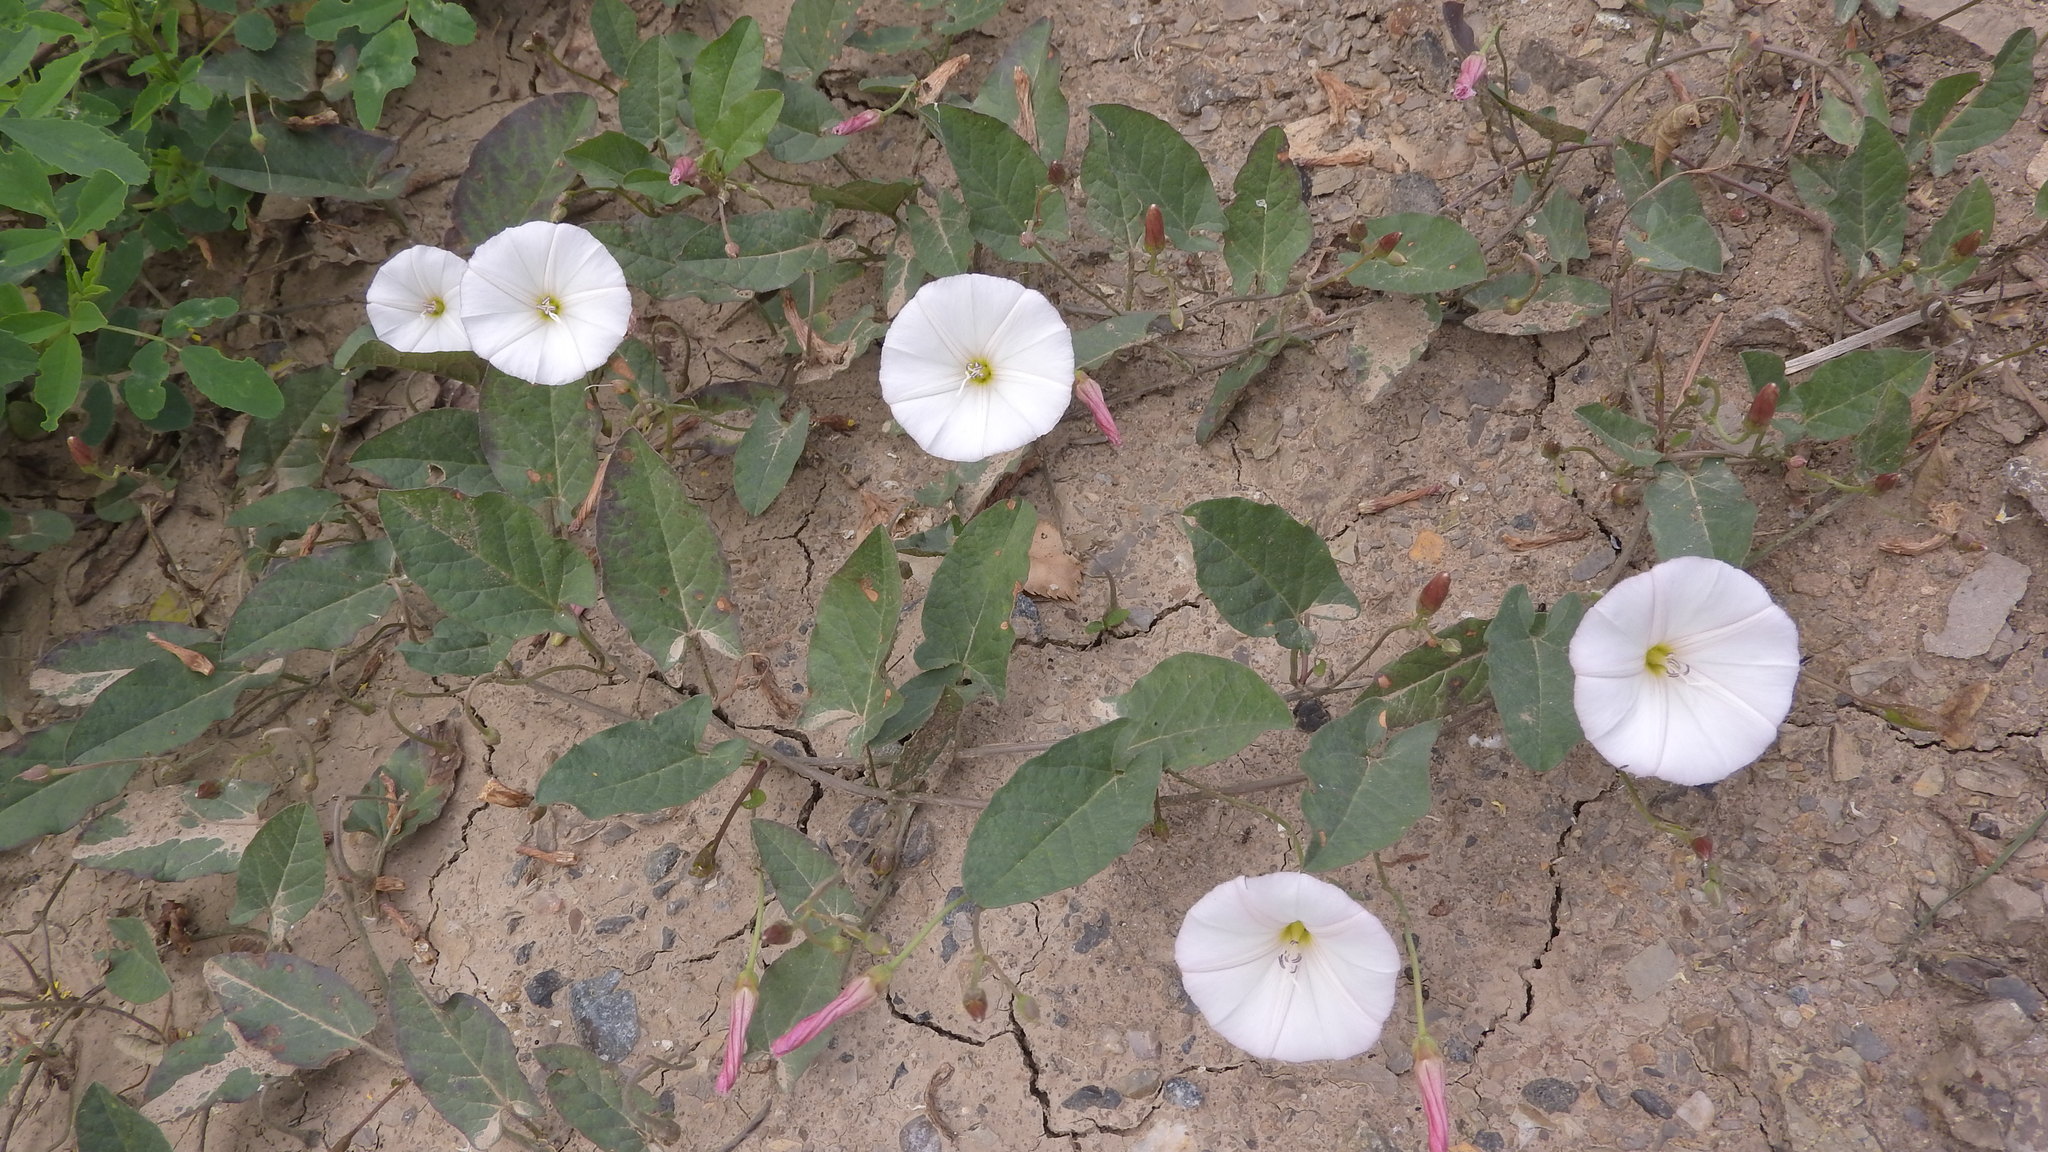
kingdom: Plantae
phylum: Tracheophyta
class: Magnoliopsida
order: Solanales
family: Convolvulaceae
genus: Convolvulus
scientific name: Convolvulus arvensis
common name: Field bindweed
